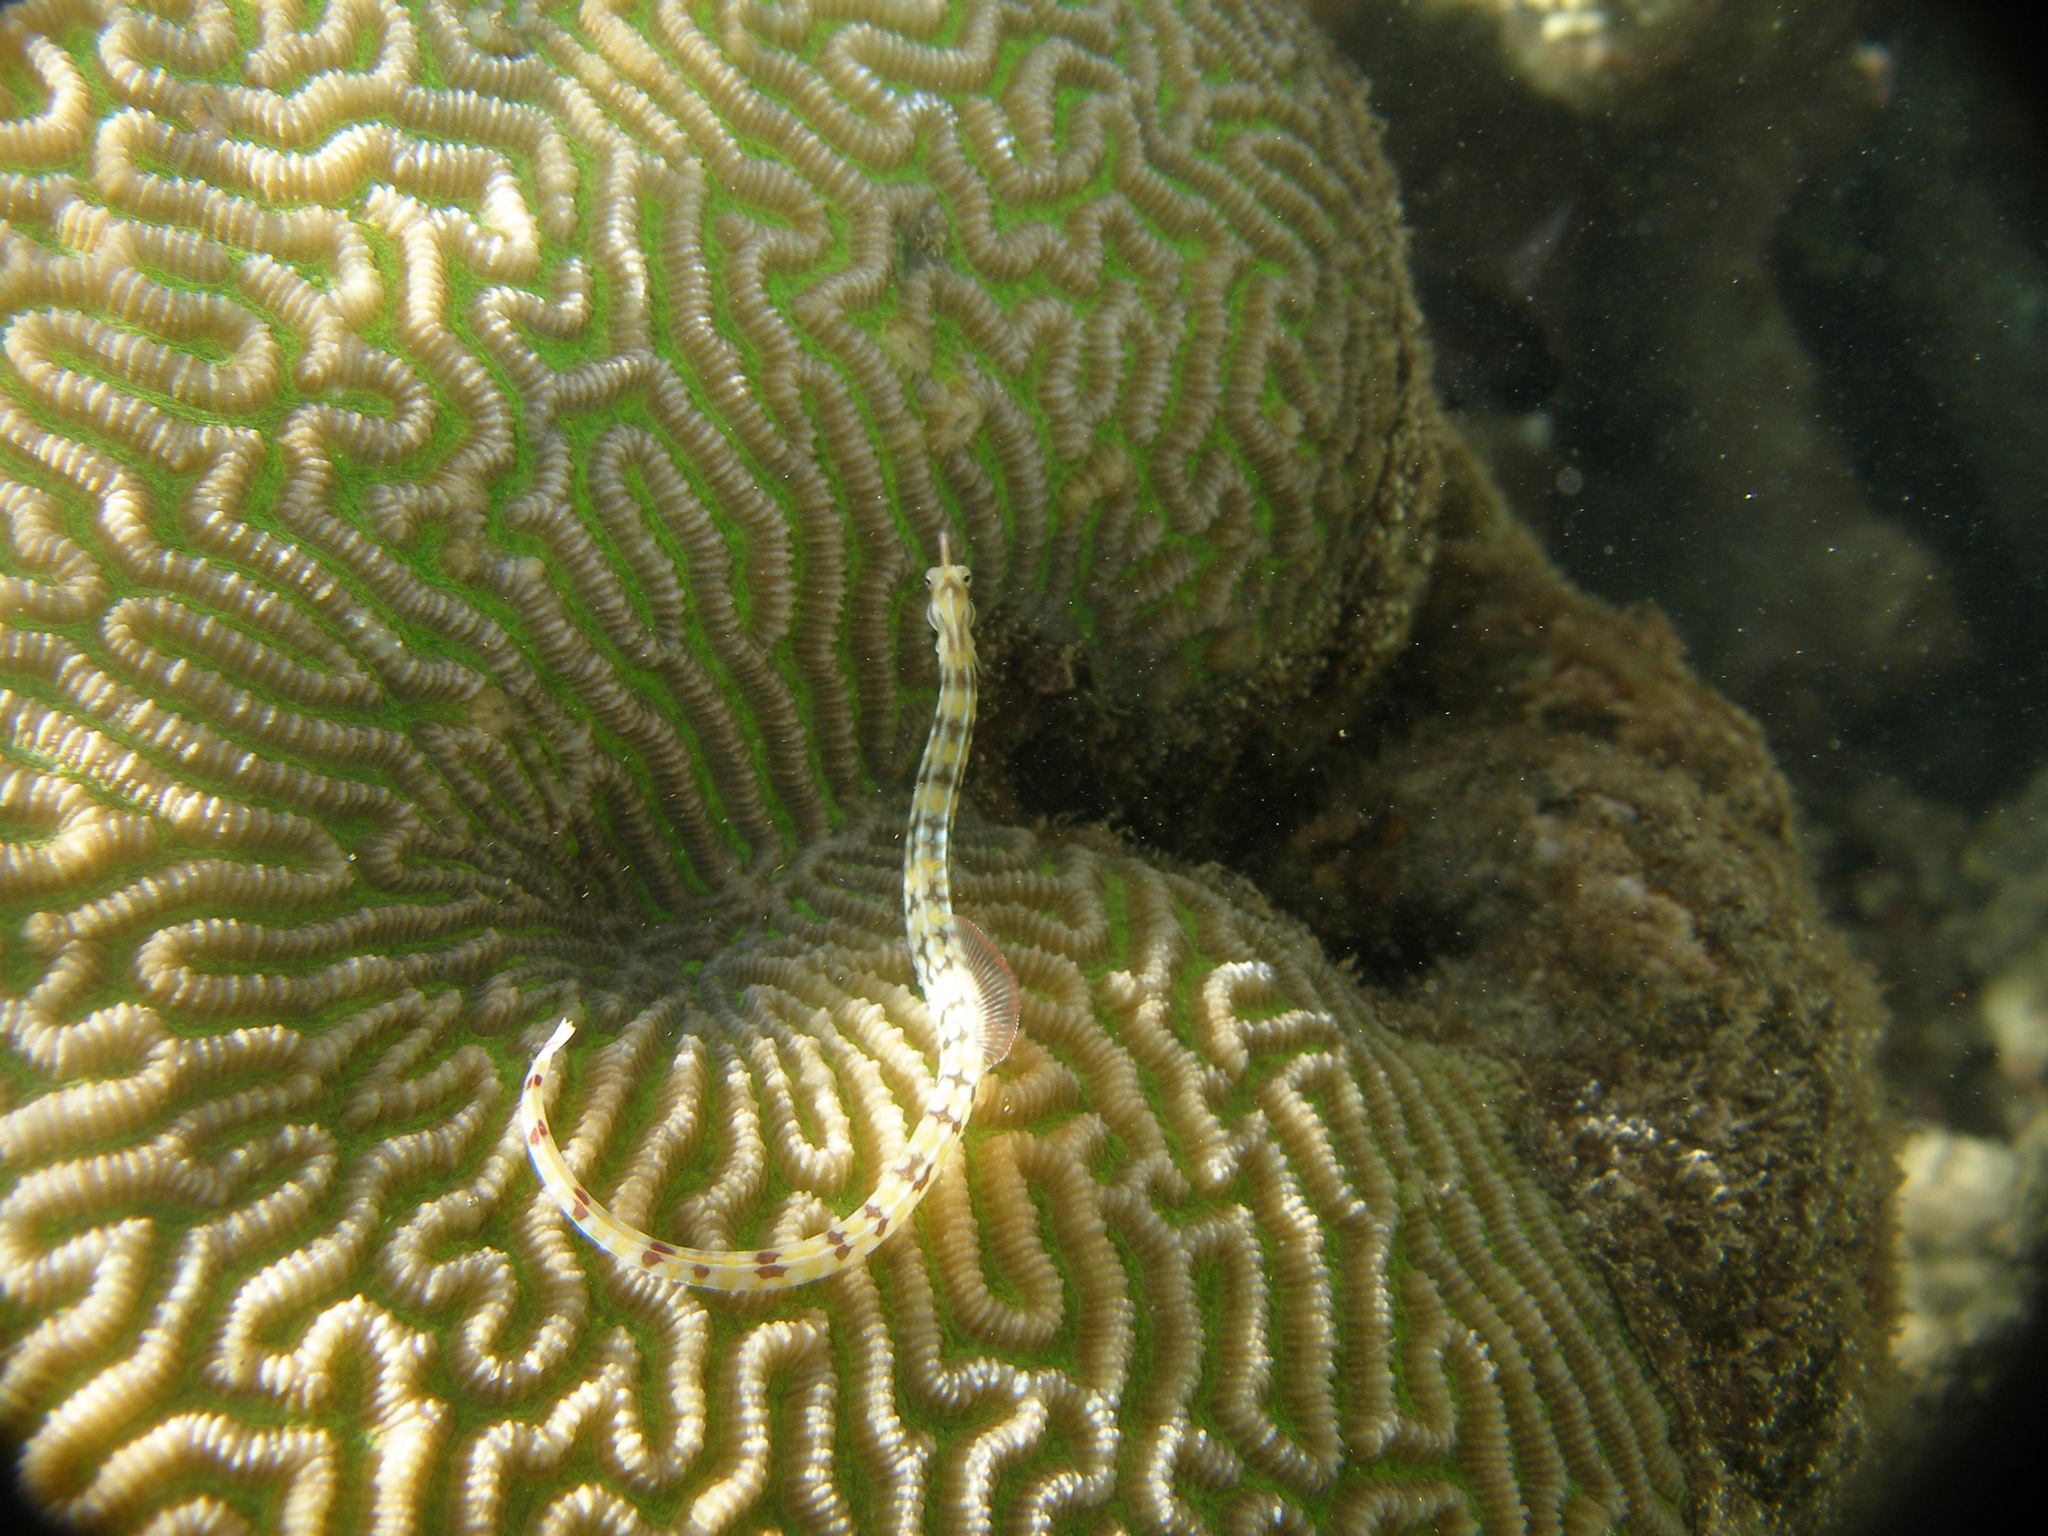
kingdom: Animalia
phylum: Chordata
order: Syngnathiformes
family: Syngnathidae
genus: Corythoichthys
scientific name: Corythoichthys flavofasciatus
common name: Banded pipefish
